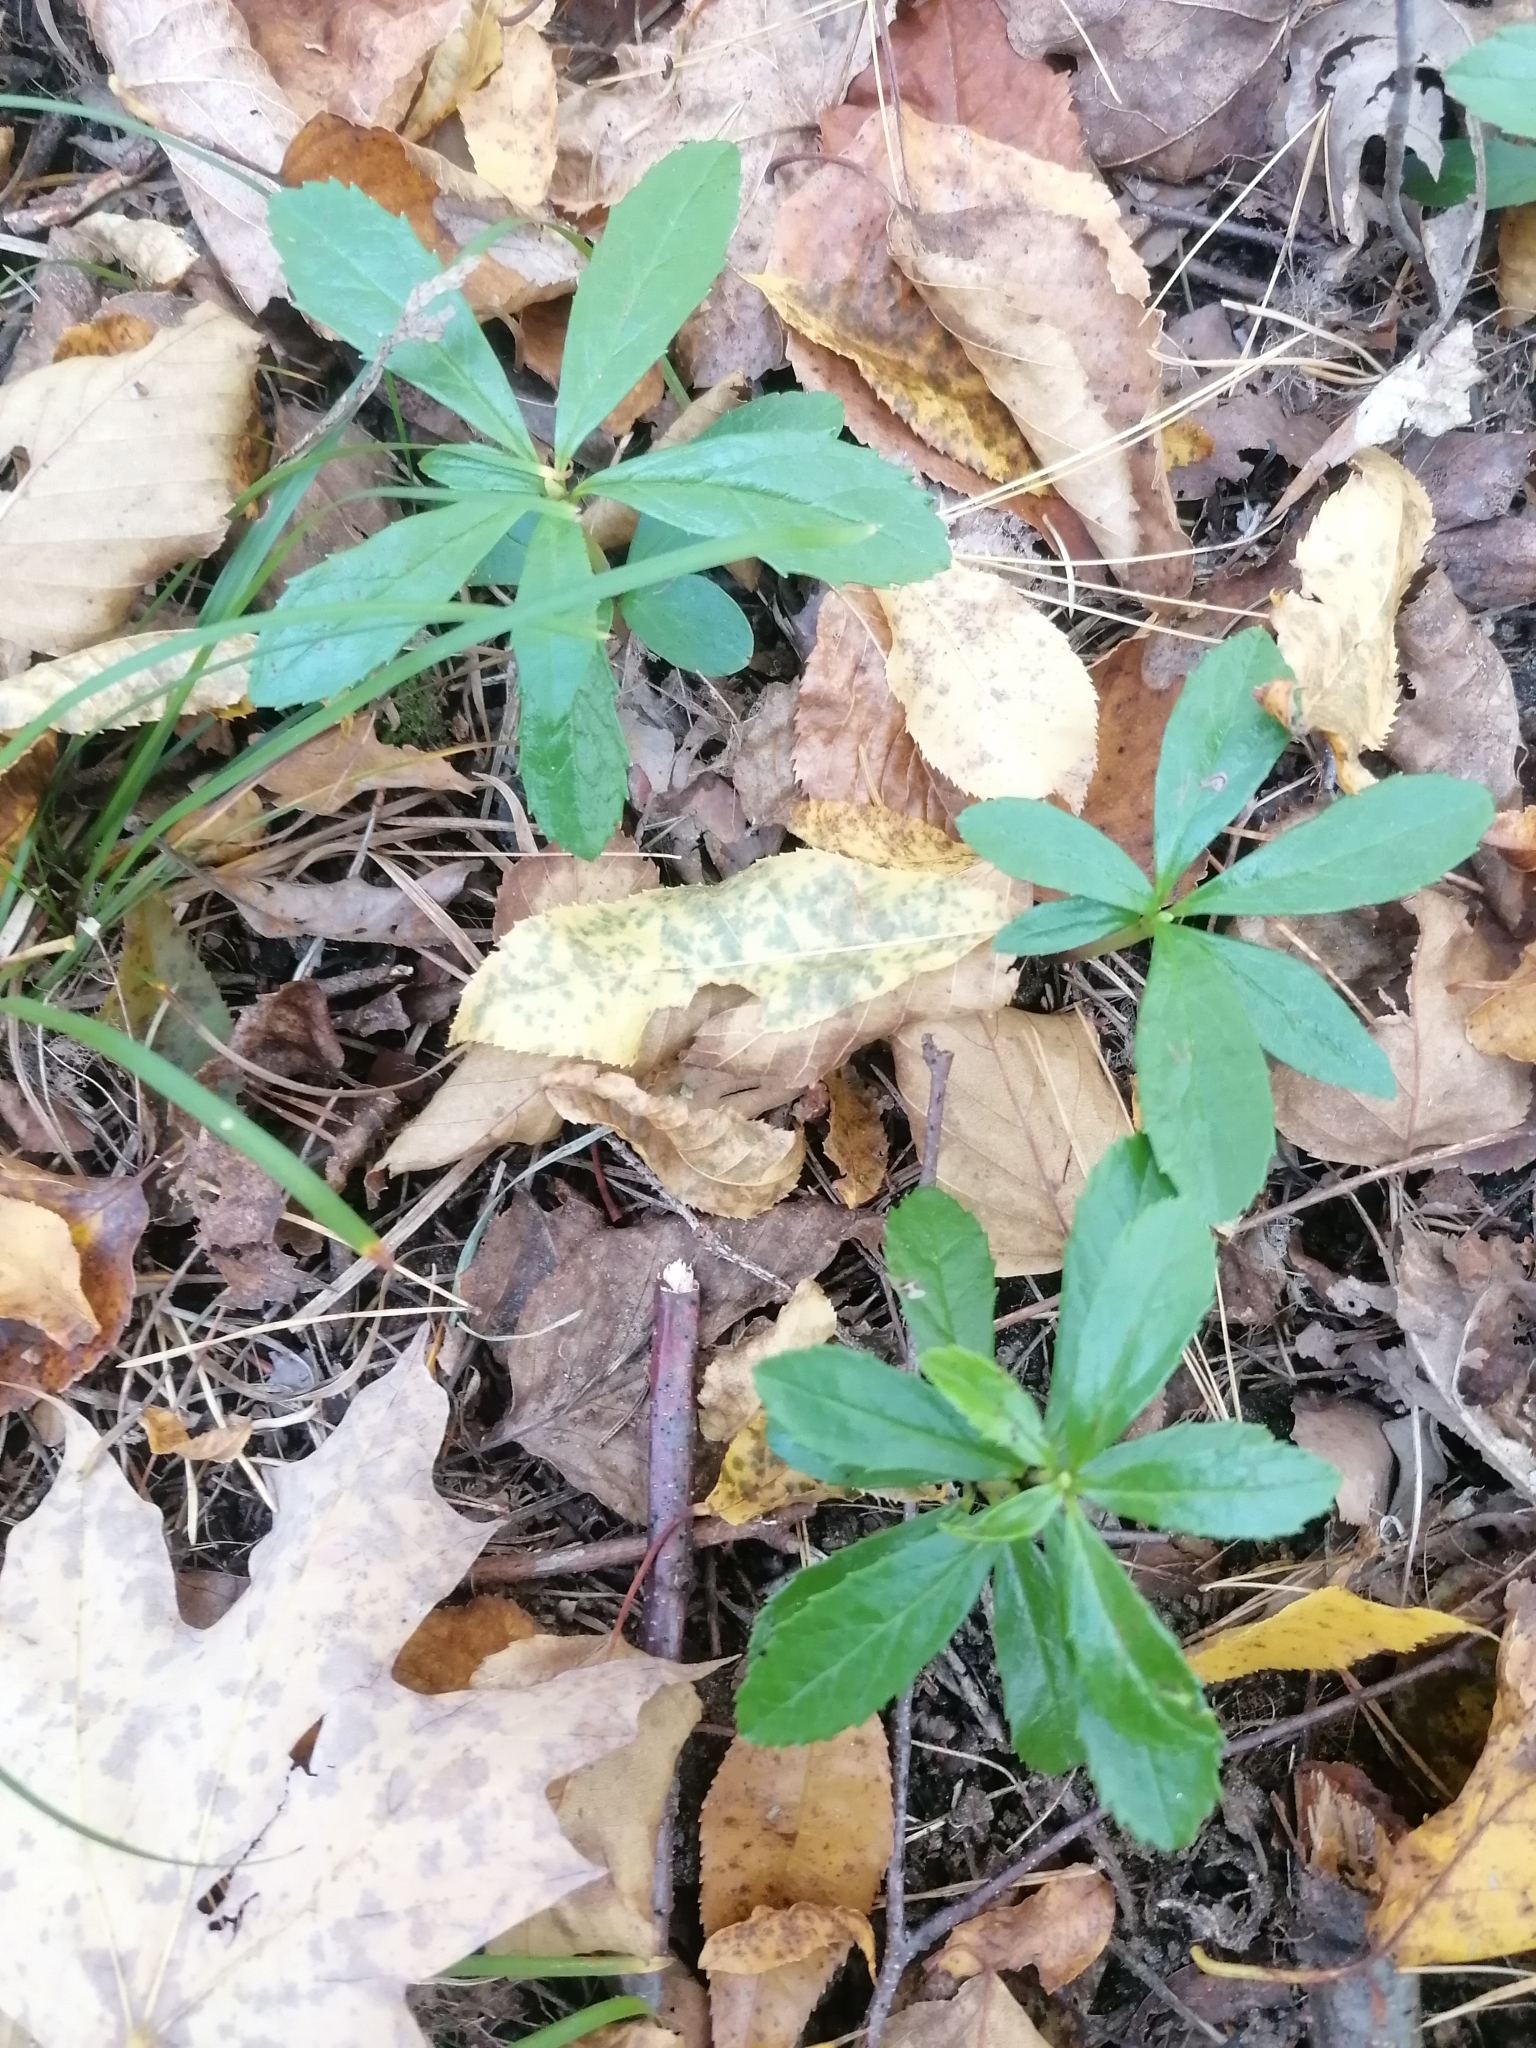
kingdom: Plantae
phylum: Tracheophyta
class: Magnoliopsida
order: Ericales
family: Ericaceae
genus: Chimaphila
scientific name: Chimaphila umbellata
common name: Pipsissewa
